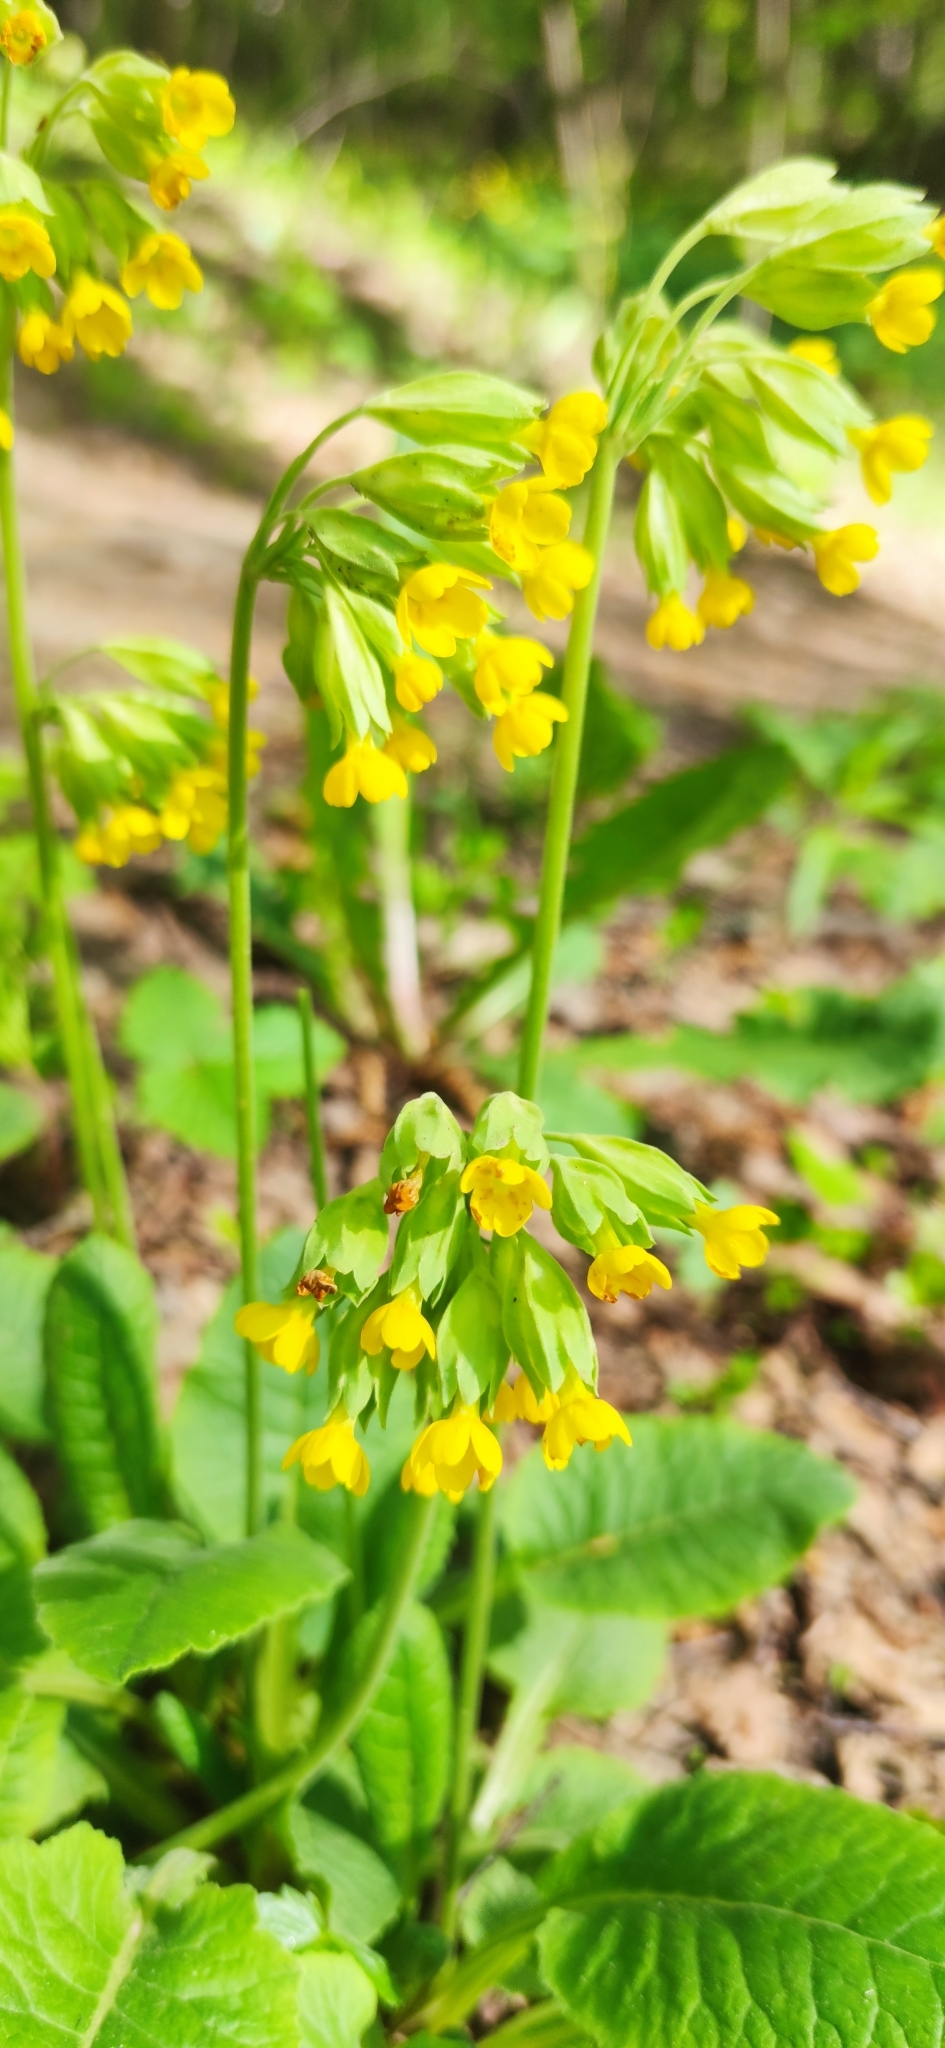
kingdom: Plantae
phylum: Tracheophyta
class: Magnoliopsida
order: Ericales
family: Primulaceae
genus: Primula
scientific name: Primula veris
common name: Cowslip
